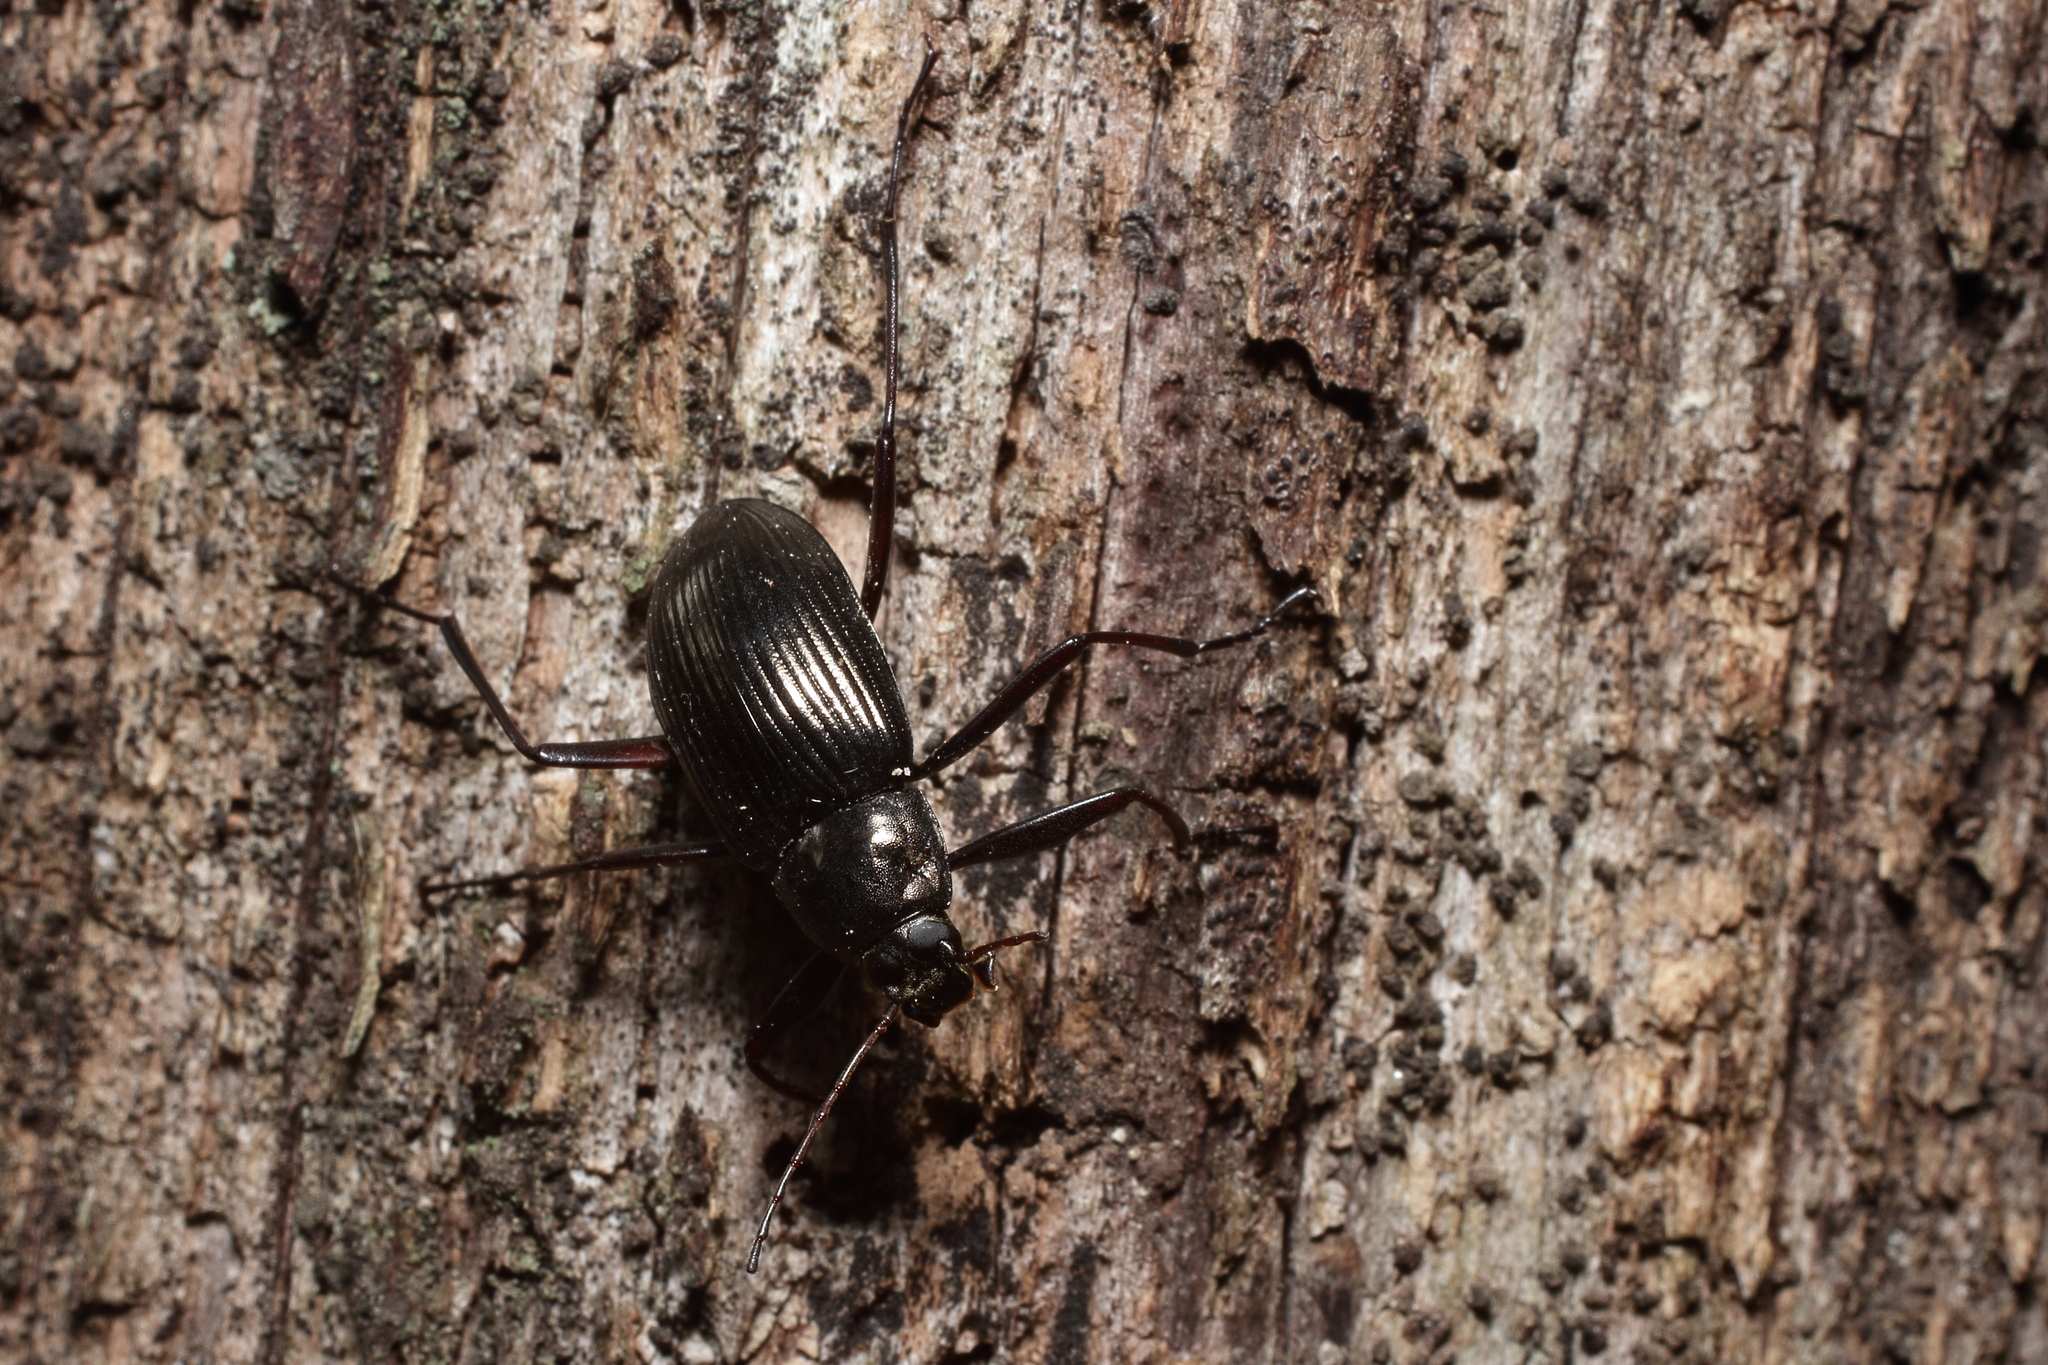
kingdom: Animalia
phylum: Arthropoda
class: Insecta
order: Coleoptera
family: Tenebrionidae
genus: Plesiophthalmus
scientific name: Plesiophthalmus
